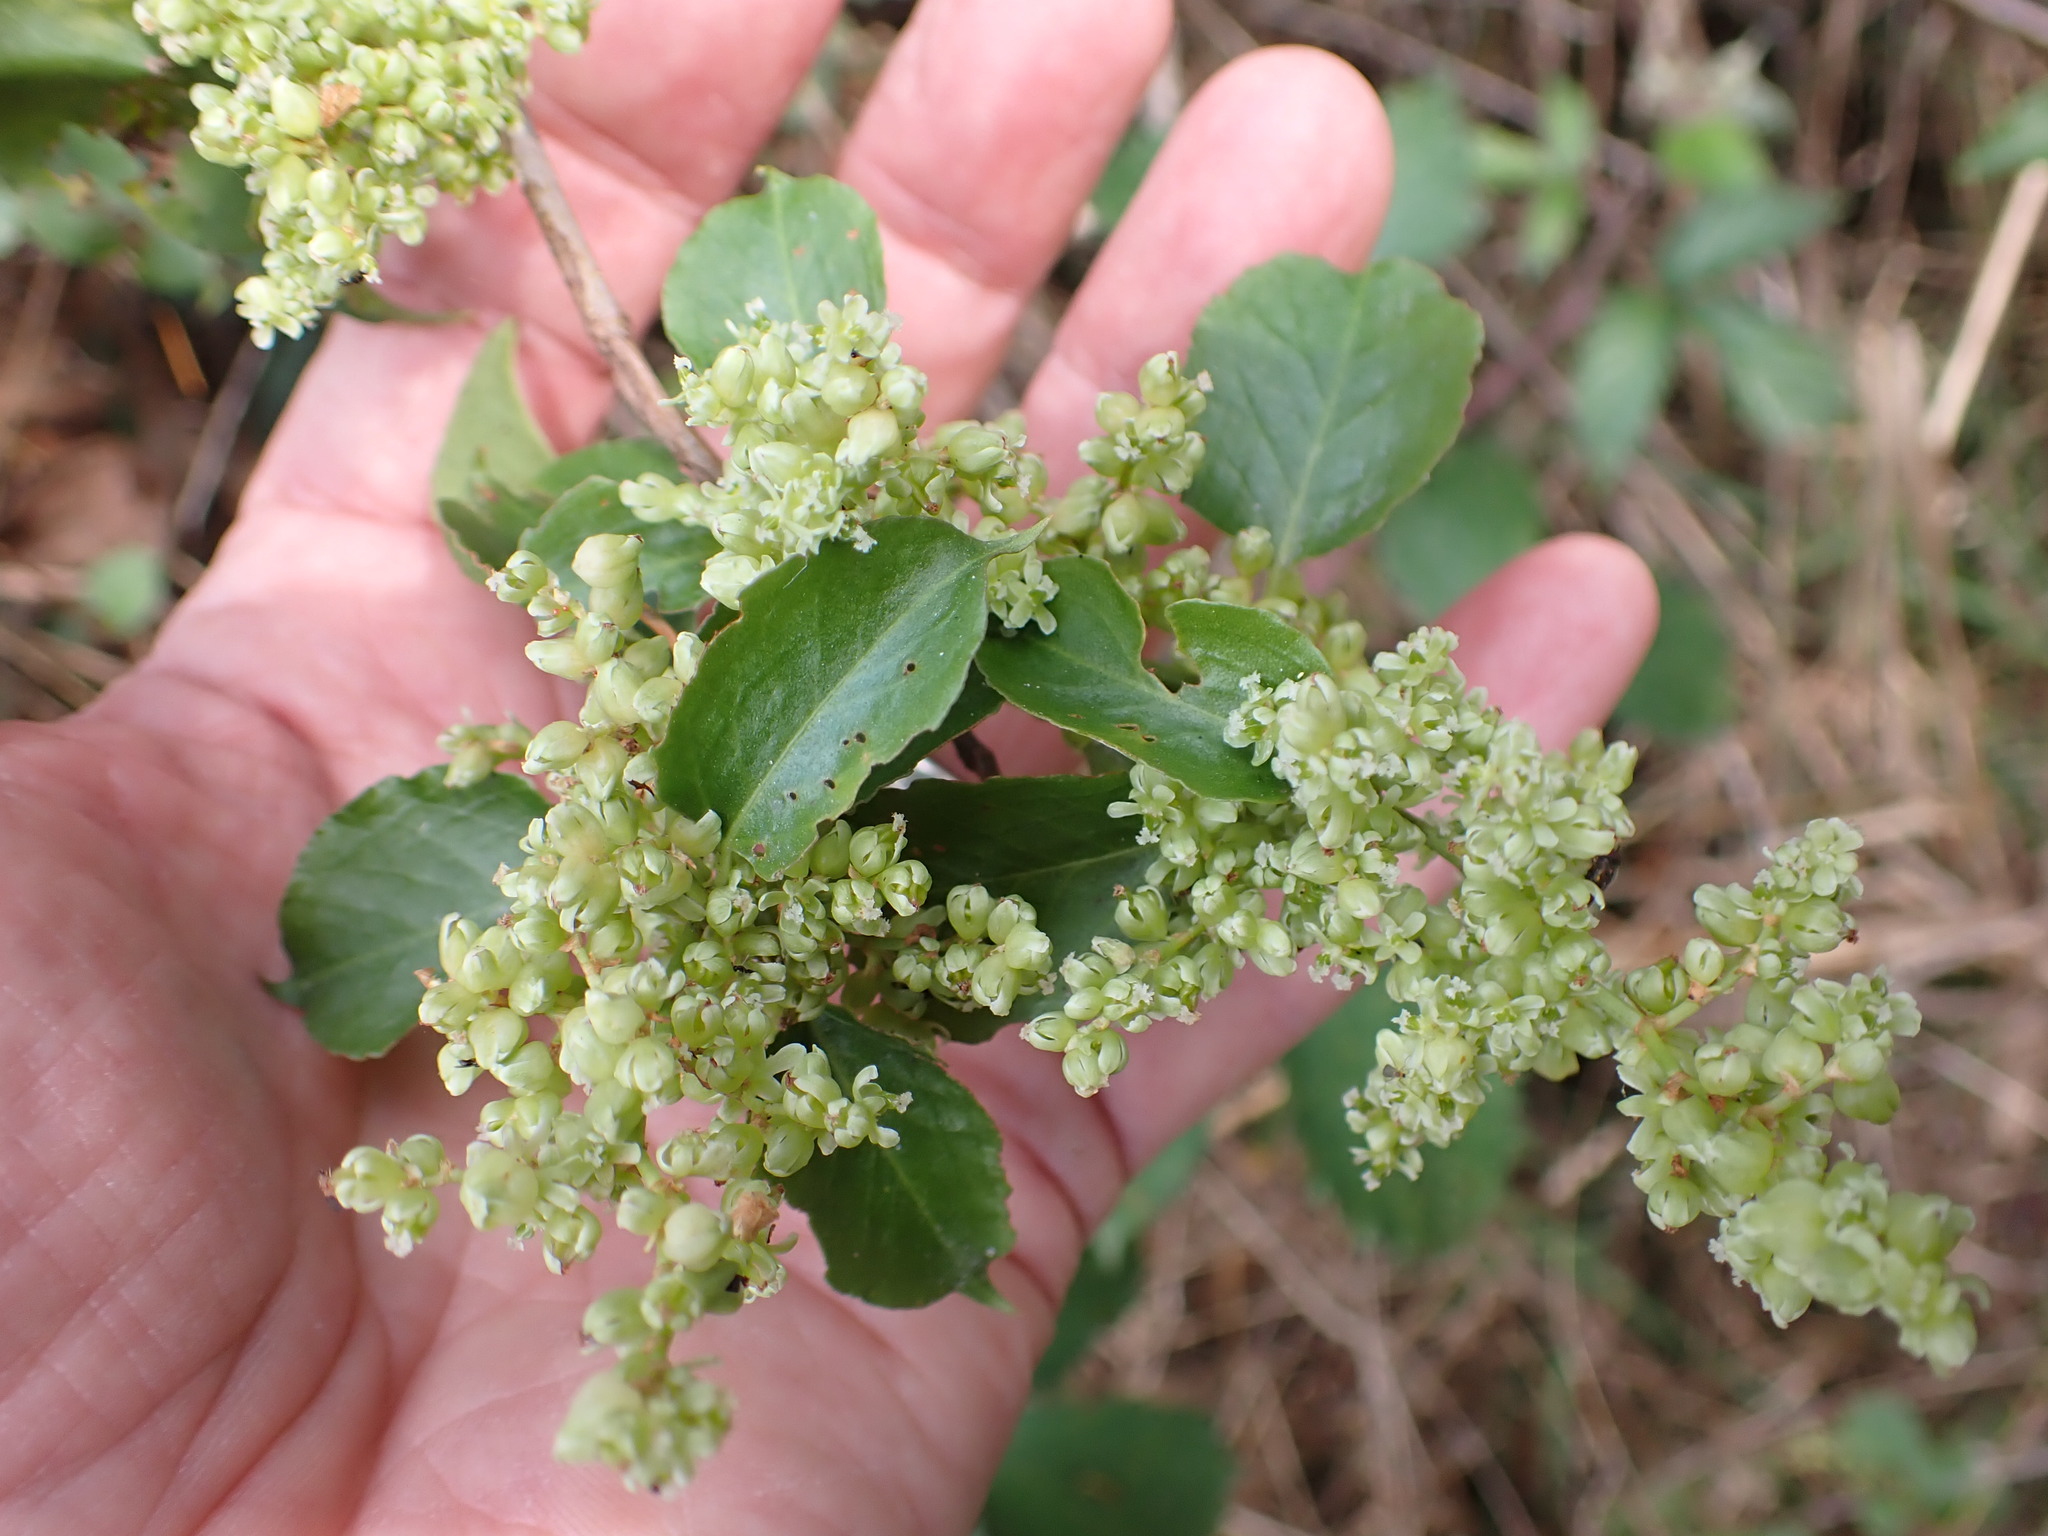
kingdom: Plantae
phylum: Tracheophyta
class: Magnoliopsida
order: Caryophyllales
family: Polygonaceae
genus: Muehlenbeckia
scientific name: Muehlenbeckia australis
